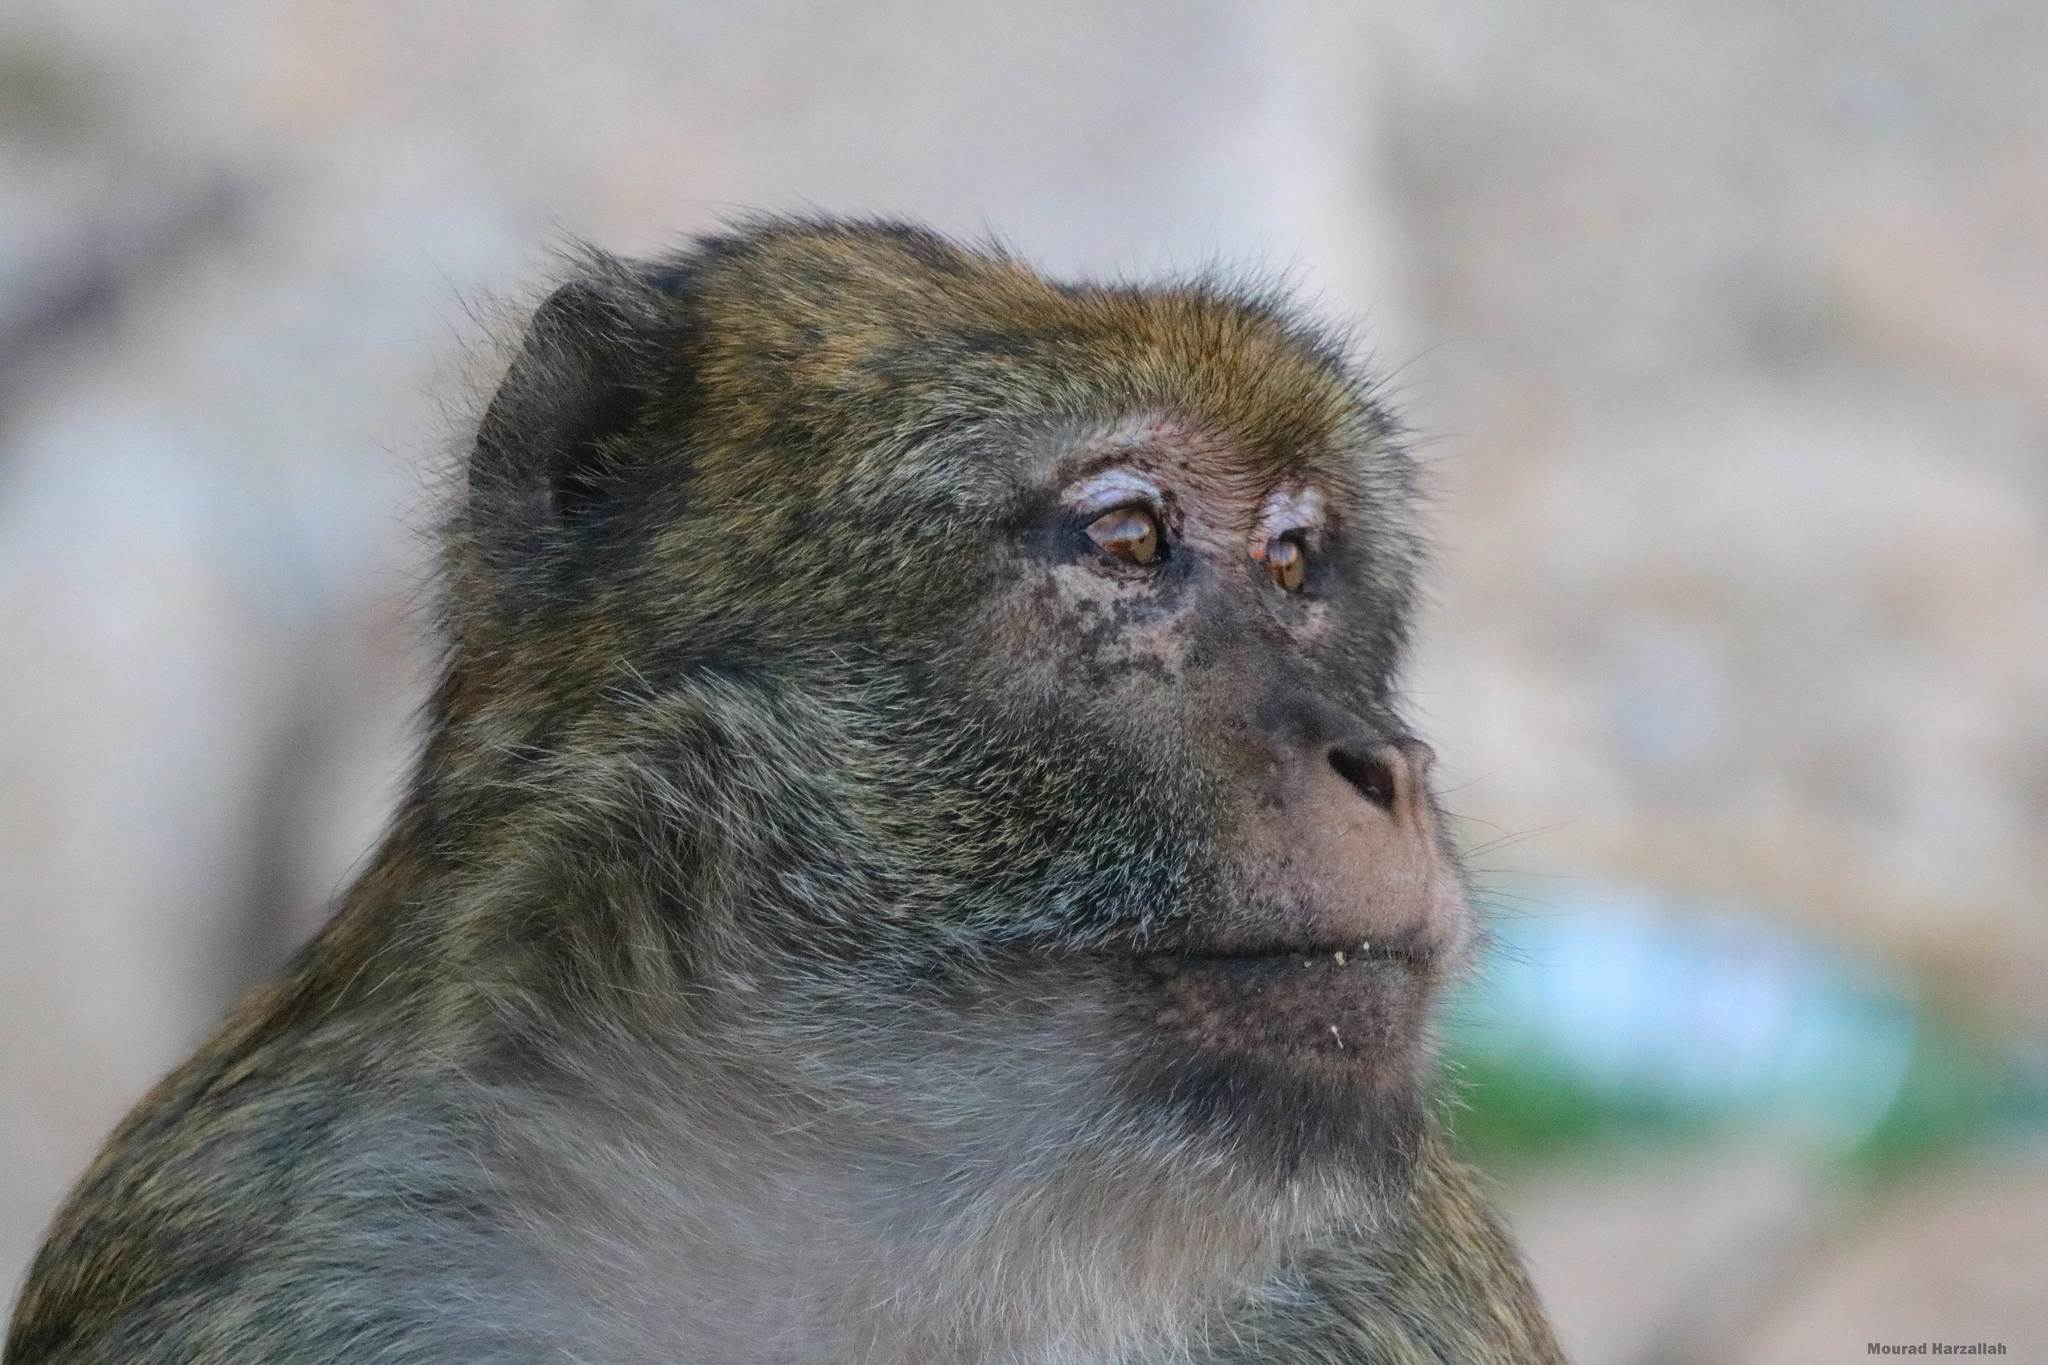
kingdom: Animalia
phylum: Chordata
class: Mammalia
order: Primates
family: Cercopithecidae
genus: Macaca
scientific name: Macaca sylvanus
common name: Barbary macaque
